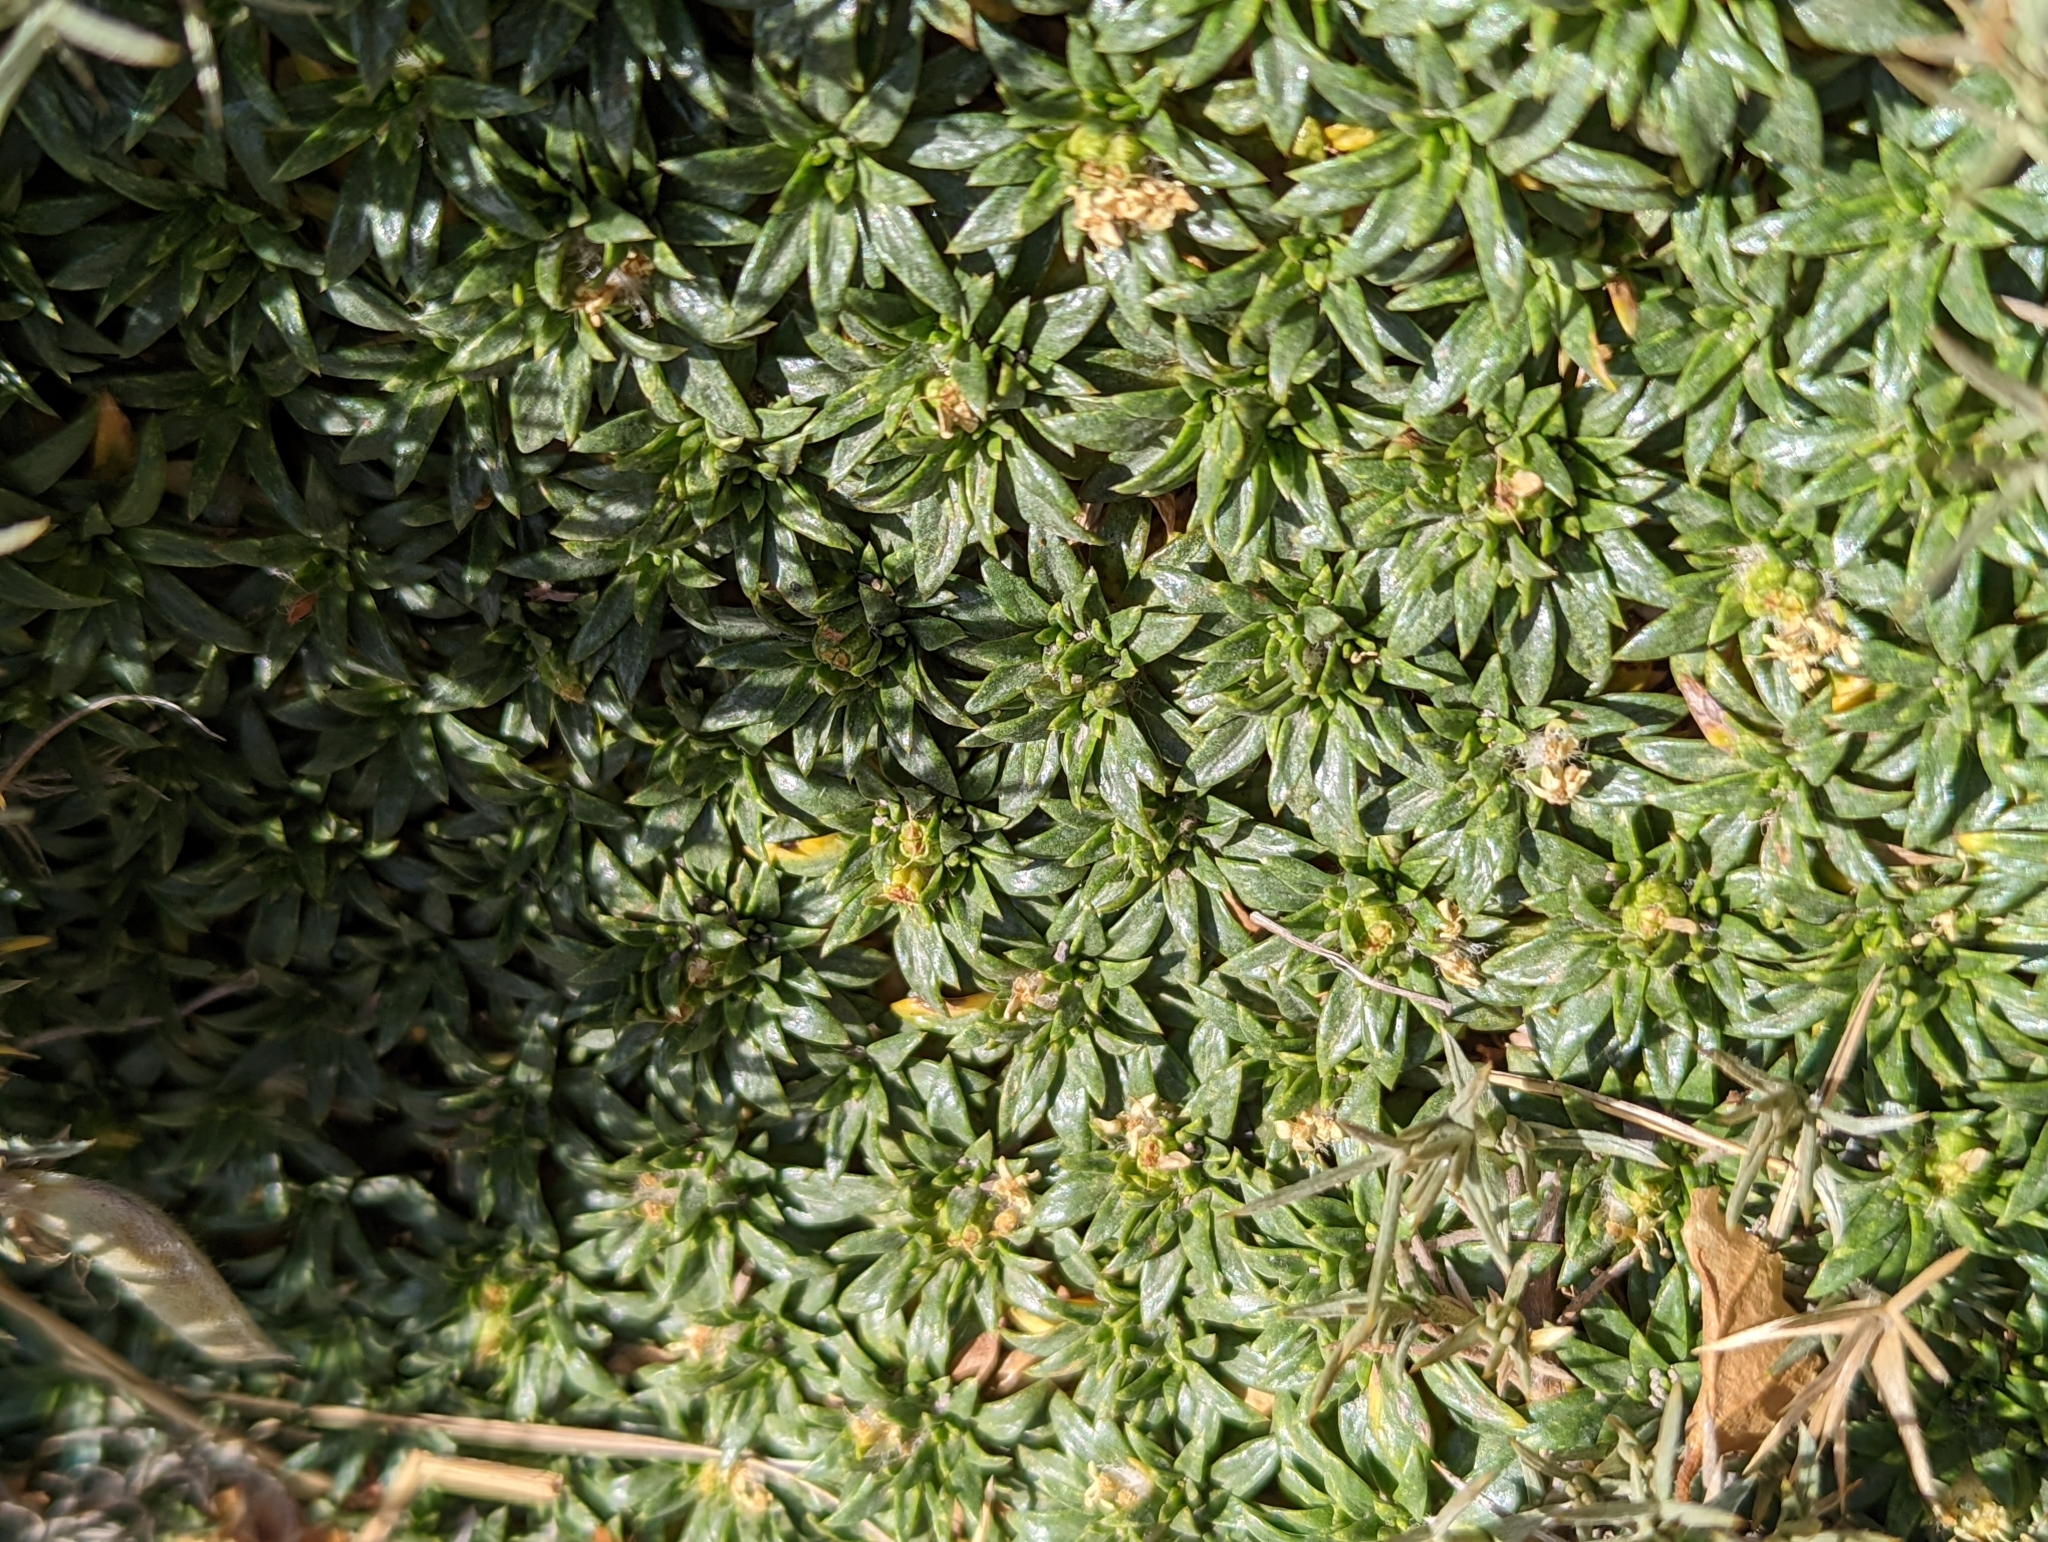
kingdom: Plantae
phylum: Tracheophyta
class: Magnoliopsida
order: Apiales
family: Apiaceae
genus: Azorella
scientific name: Azorella monantha
